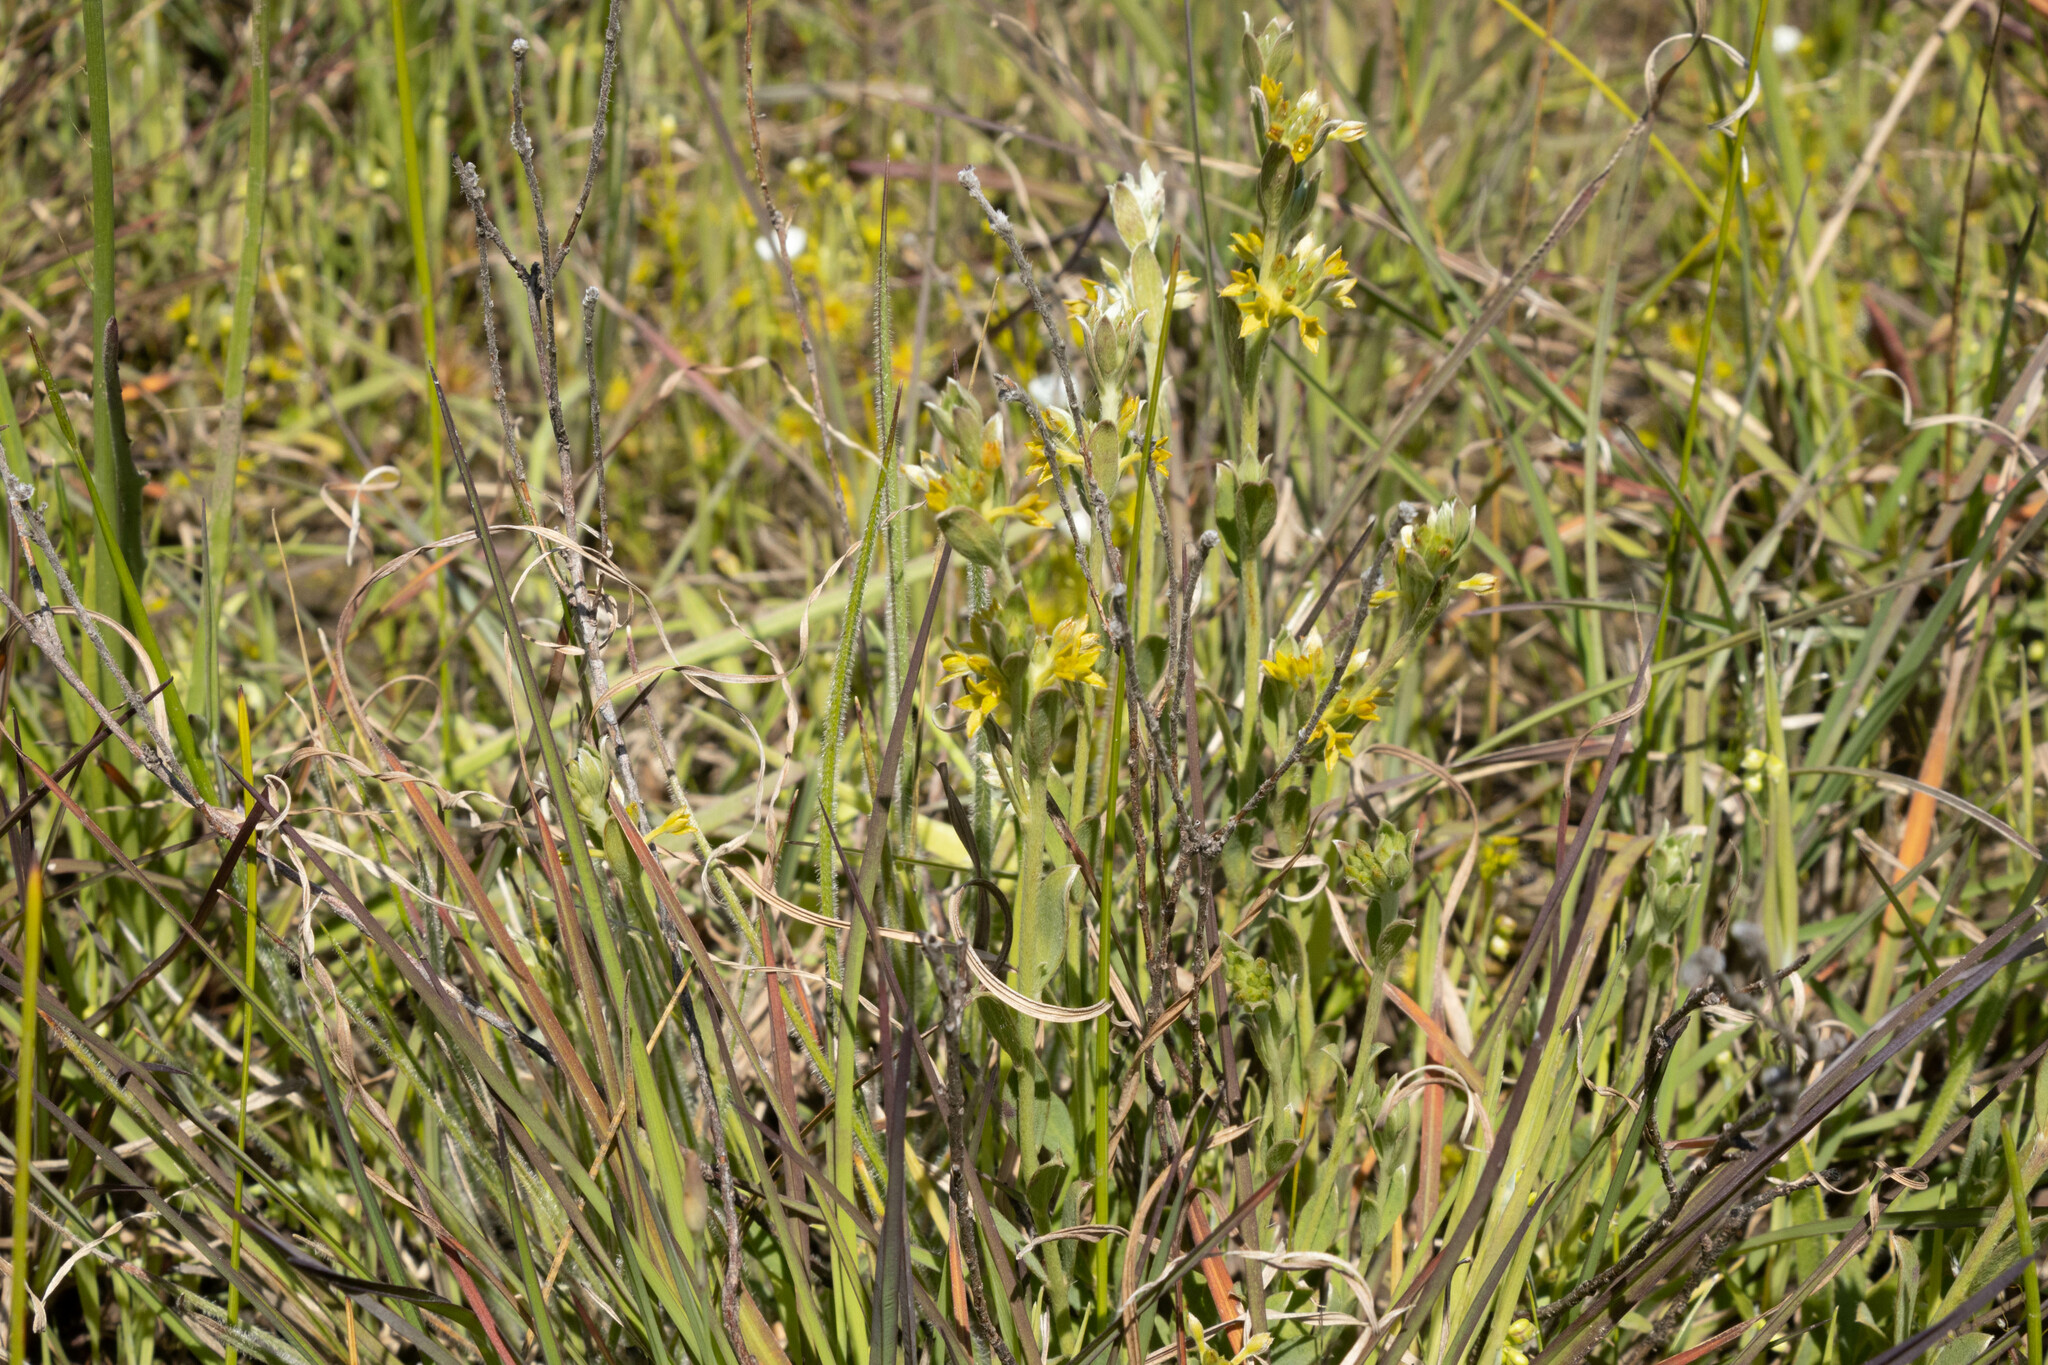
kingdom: Plantae
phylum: Tracheophyta
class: Magnoliopsida
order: Malvales
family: Thymelaeaceae
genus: Pimelea
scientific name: Pimelea curviflora
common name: Curved riceflower
